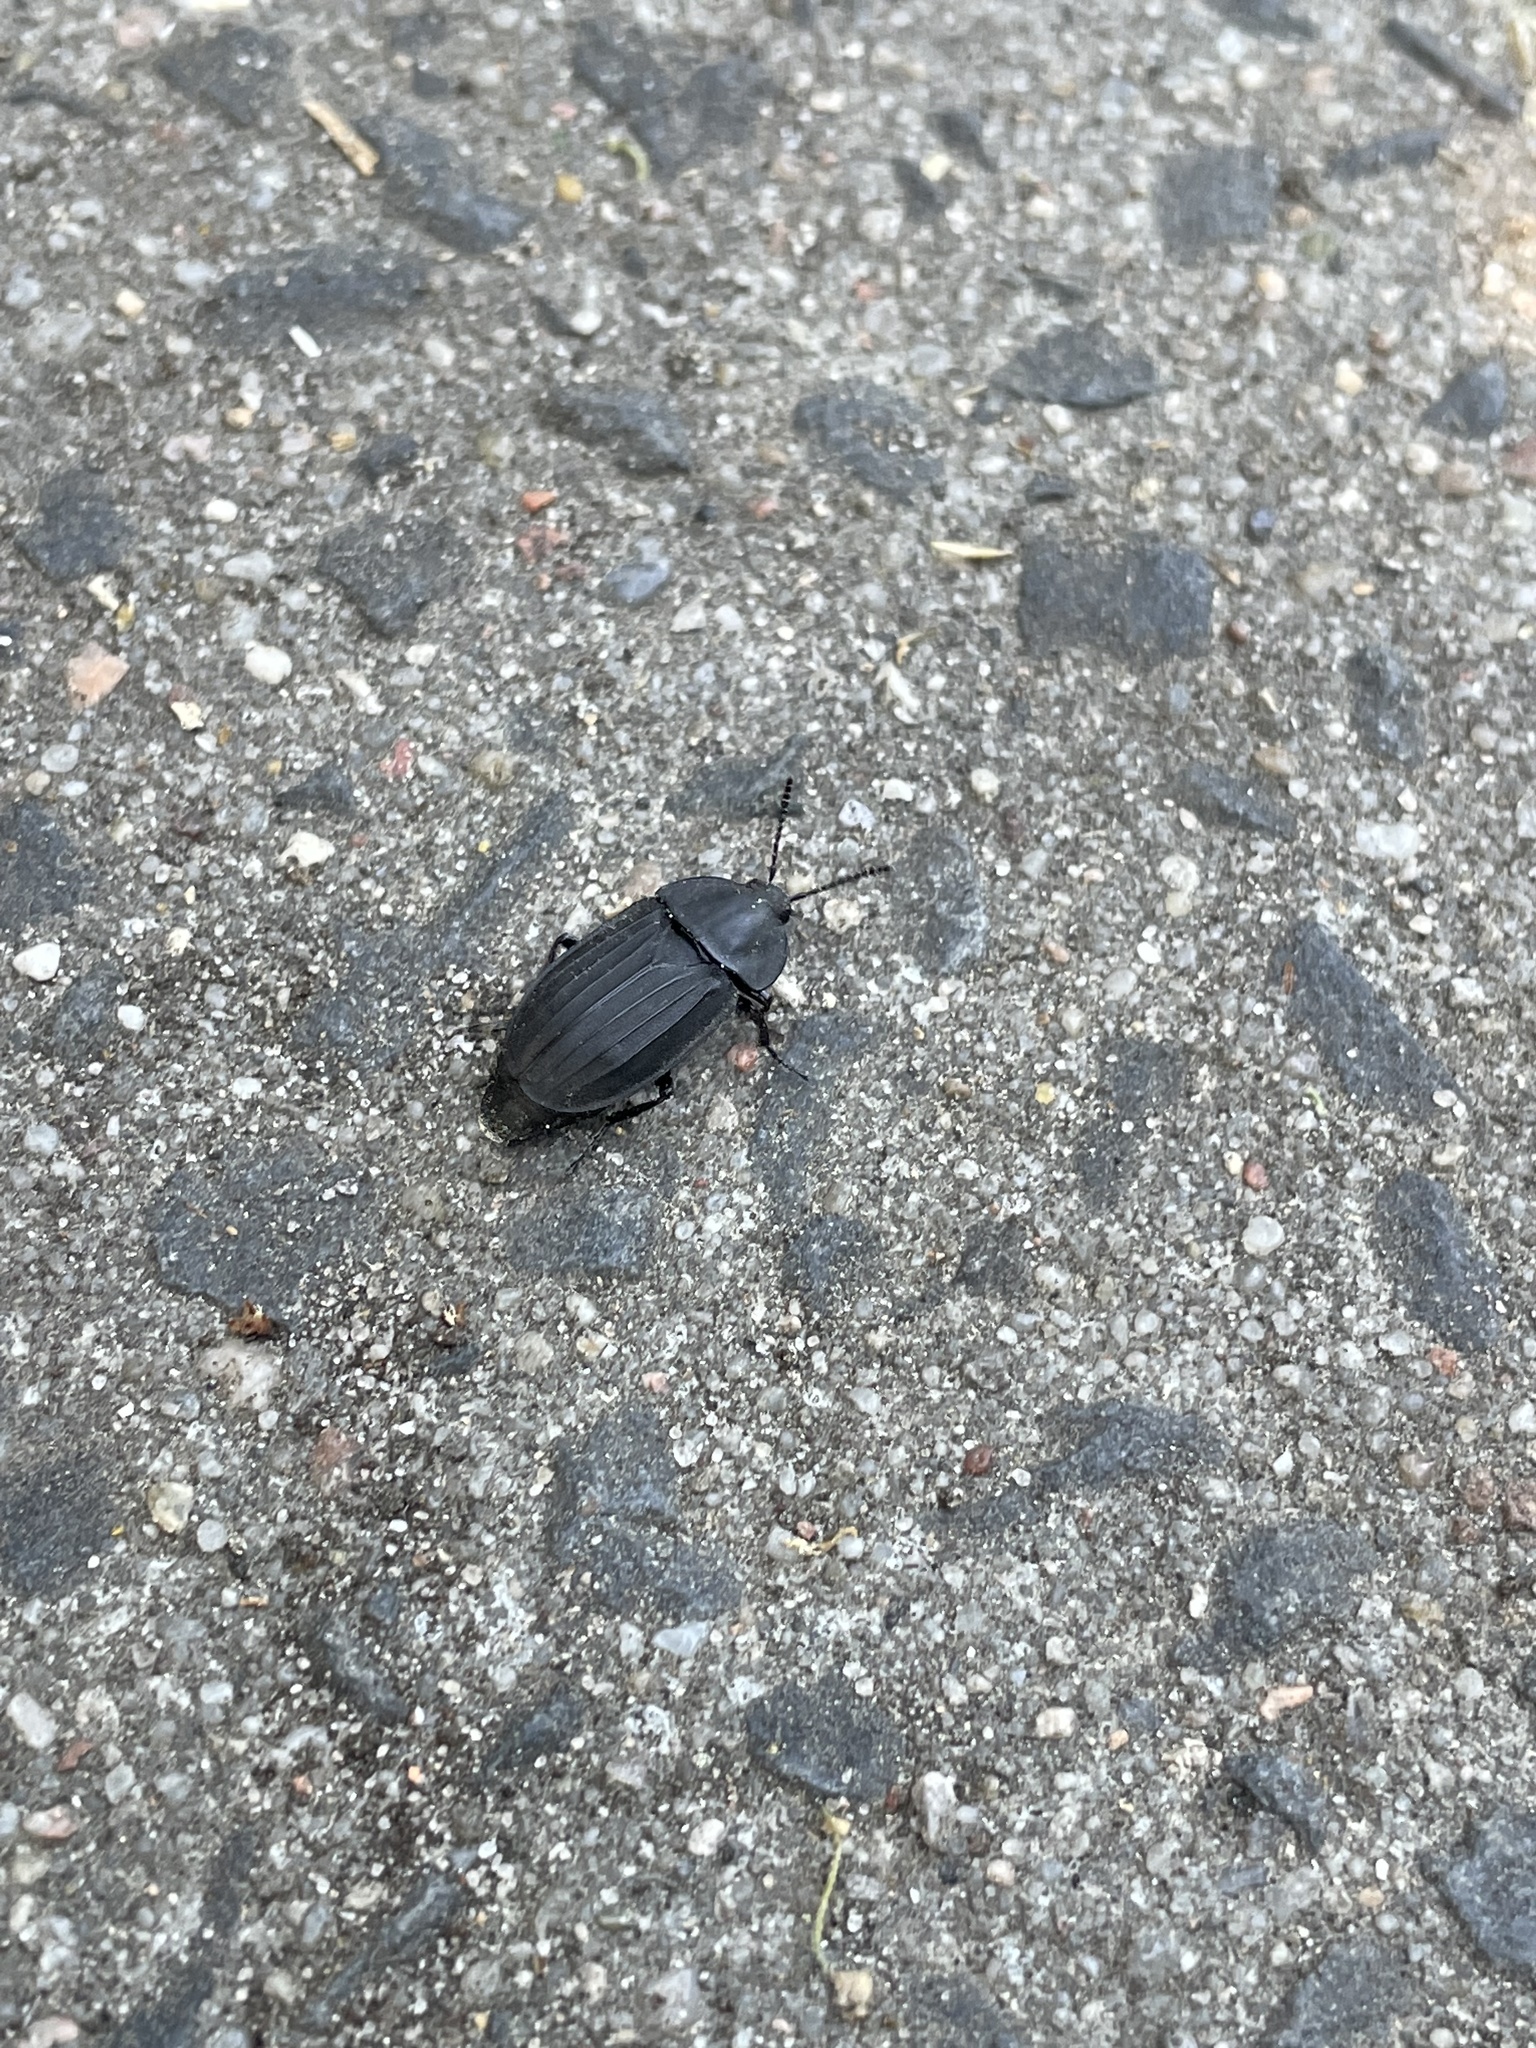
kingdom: Animalia
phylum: Arthropoda
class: Insecta
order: Coleoptera
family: Staphylinidae
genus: Silpha
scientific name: Silpha tristis
